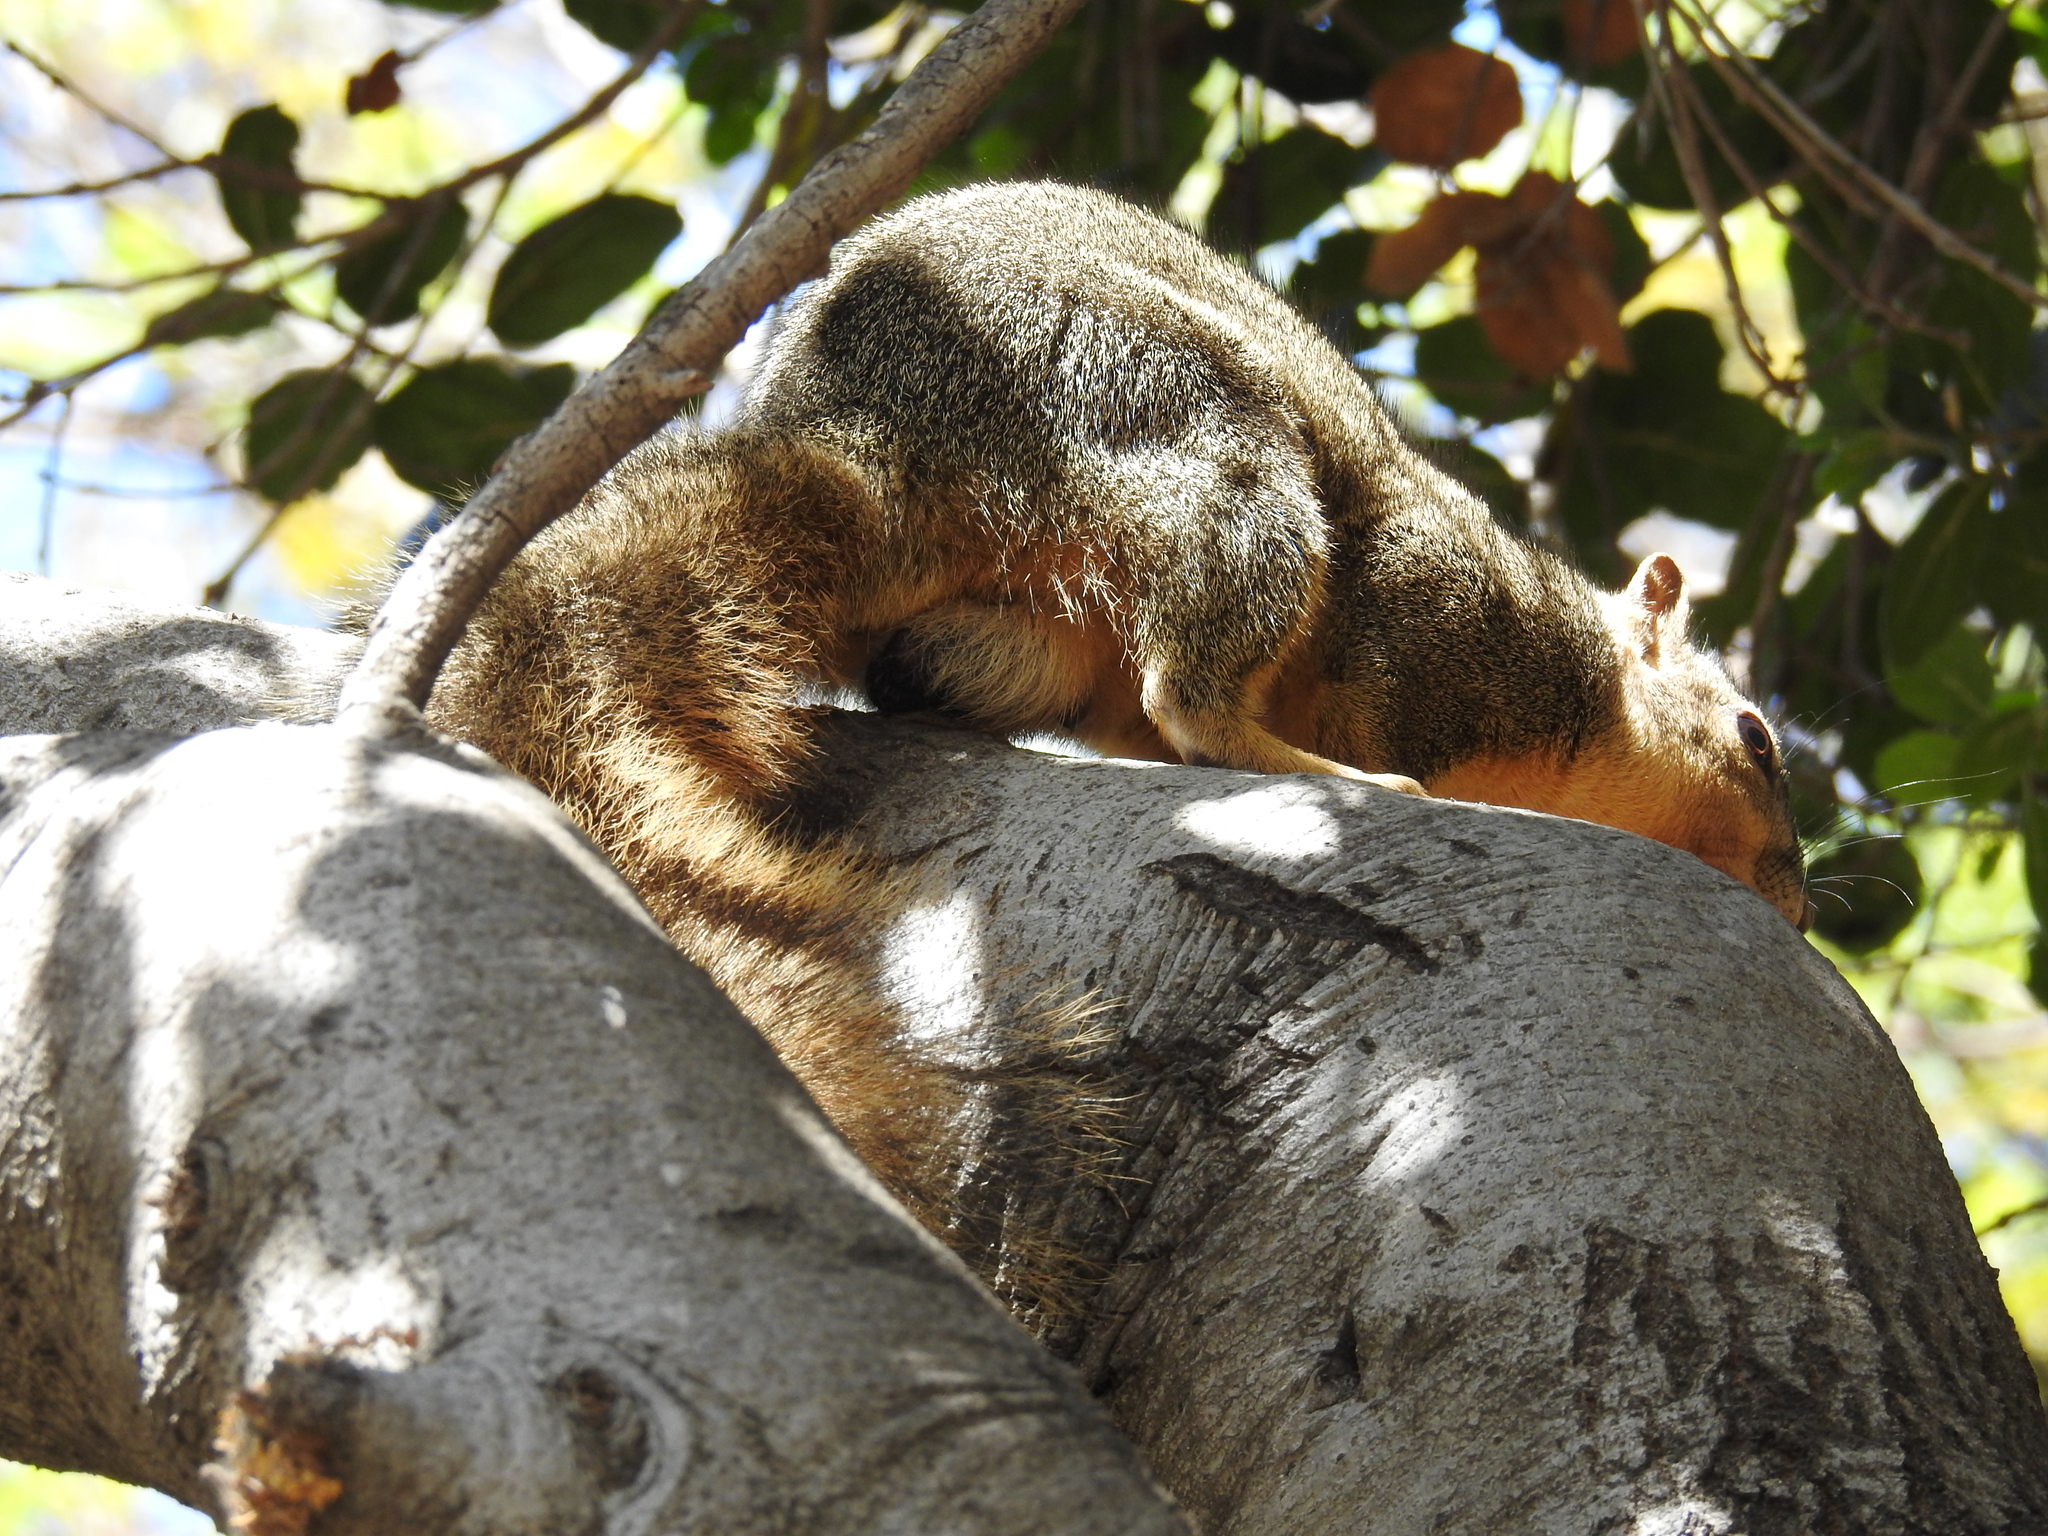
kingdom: Animalia
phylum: Chordata
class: Mammalia
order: Rodentia
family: Sciuridae
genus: Sciurus
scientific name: Sciurus niger
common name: Fox squirrel
